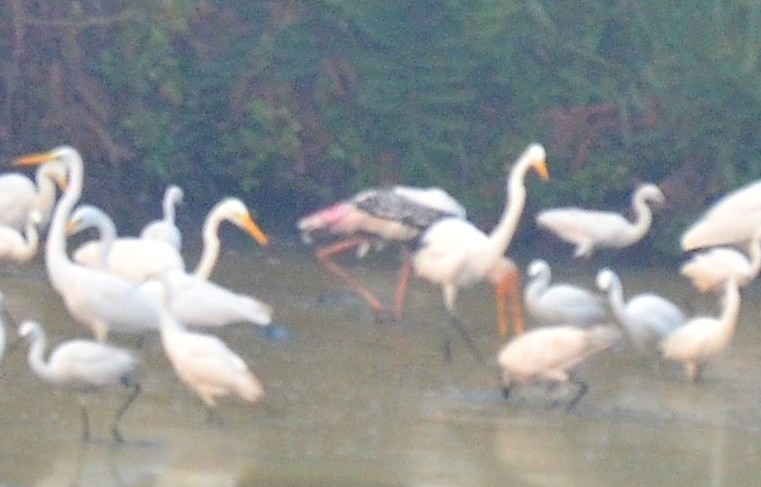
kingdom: Animalia
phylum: Chordata
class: Aves
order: Ciconiiformes
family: Ciconiidae
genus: Mycteria
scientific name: Mycteria leucocephala
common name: Painted stork
